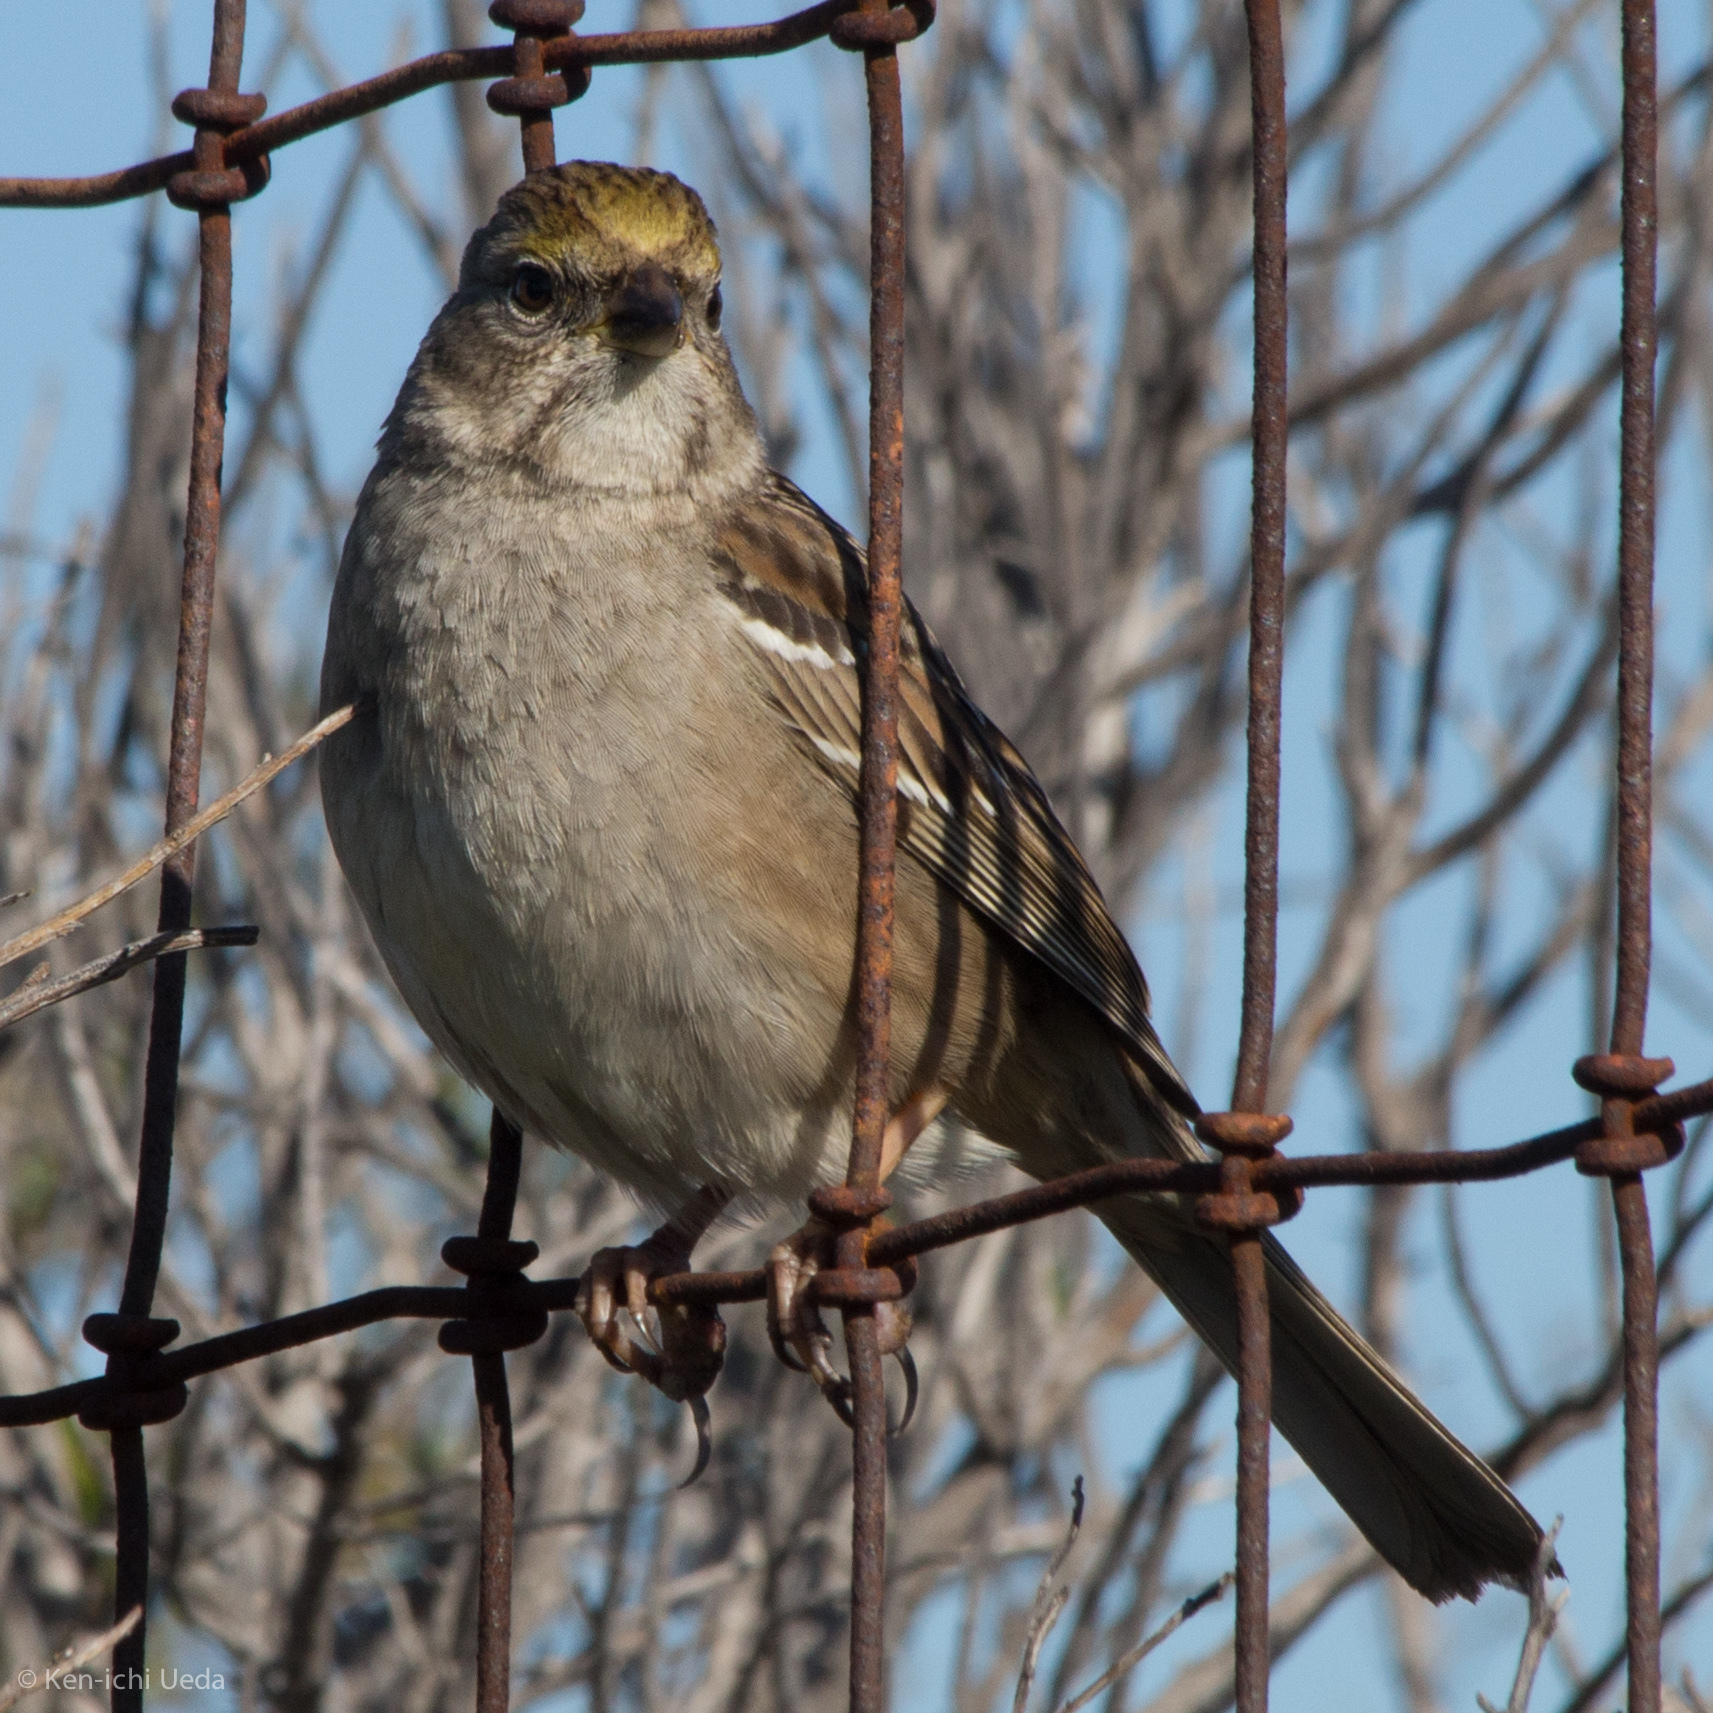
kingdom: Animalia
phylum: Chordata
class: Aves
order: Passeriformes
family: Passerellidae
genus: Zonotrichia
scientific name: Zonotrichia atricapilla
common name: Golden-crowned sparrow
